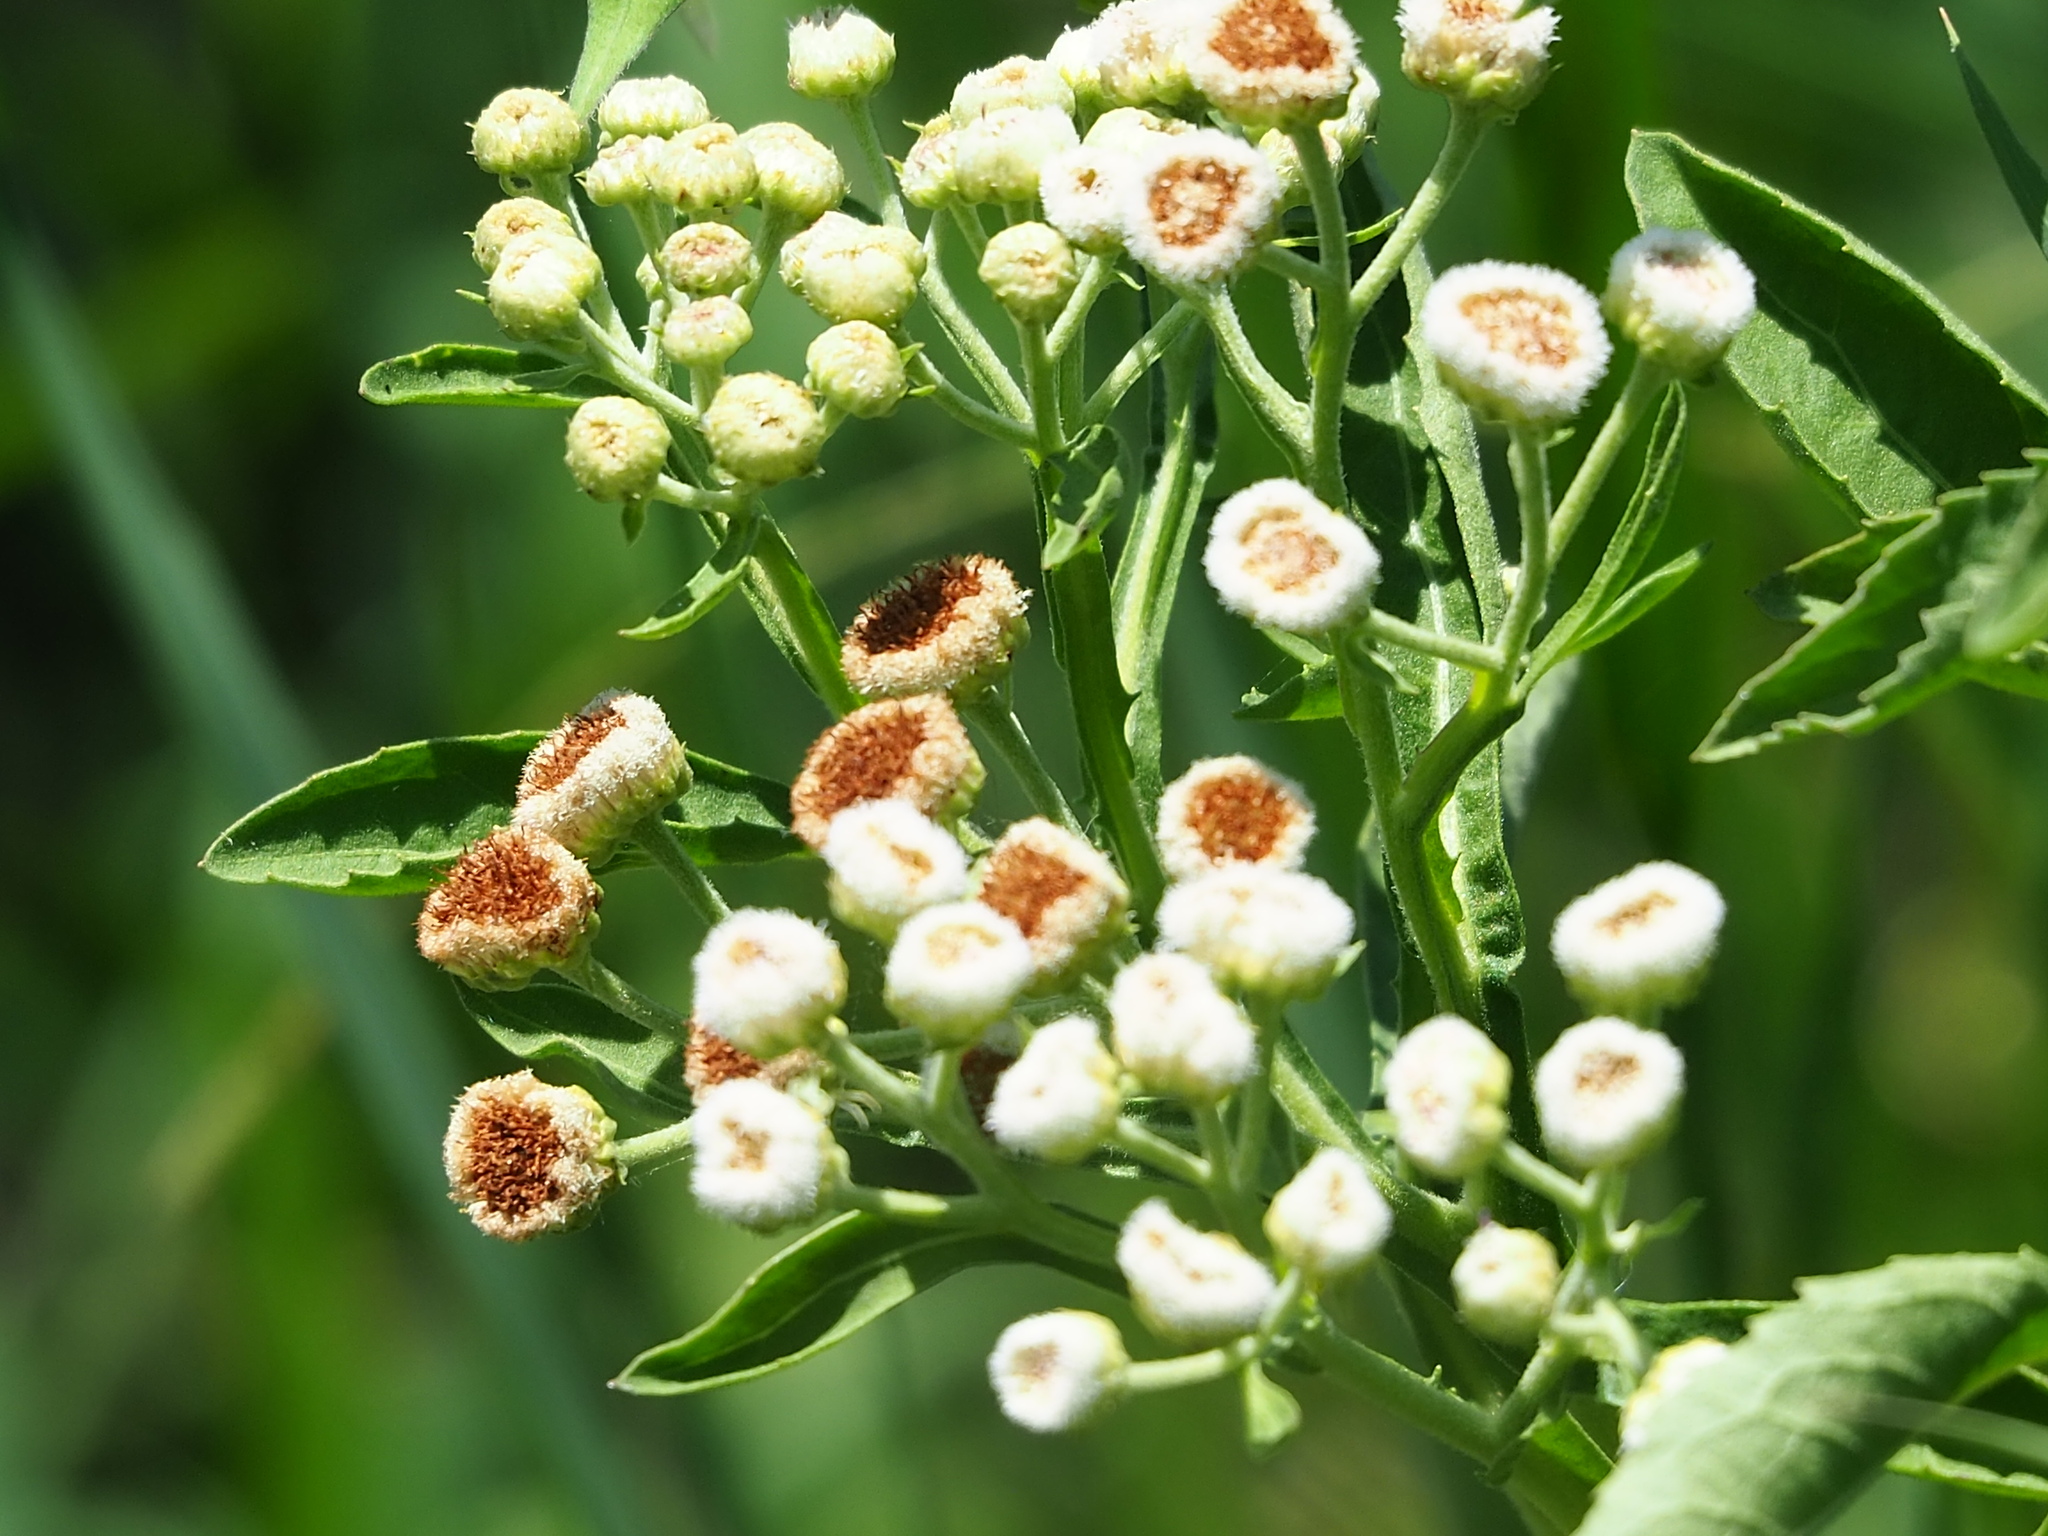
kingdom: Plantae
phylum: Tracheophyta
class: Magnoliopsida
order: Asterales
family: Asteraceae
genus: Pluchea
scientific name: Pluchea sagittalis
